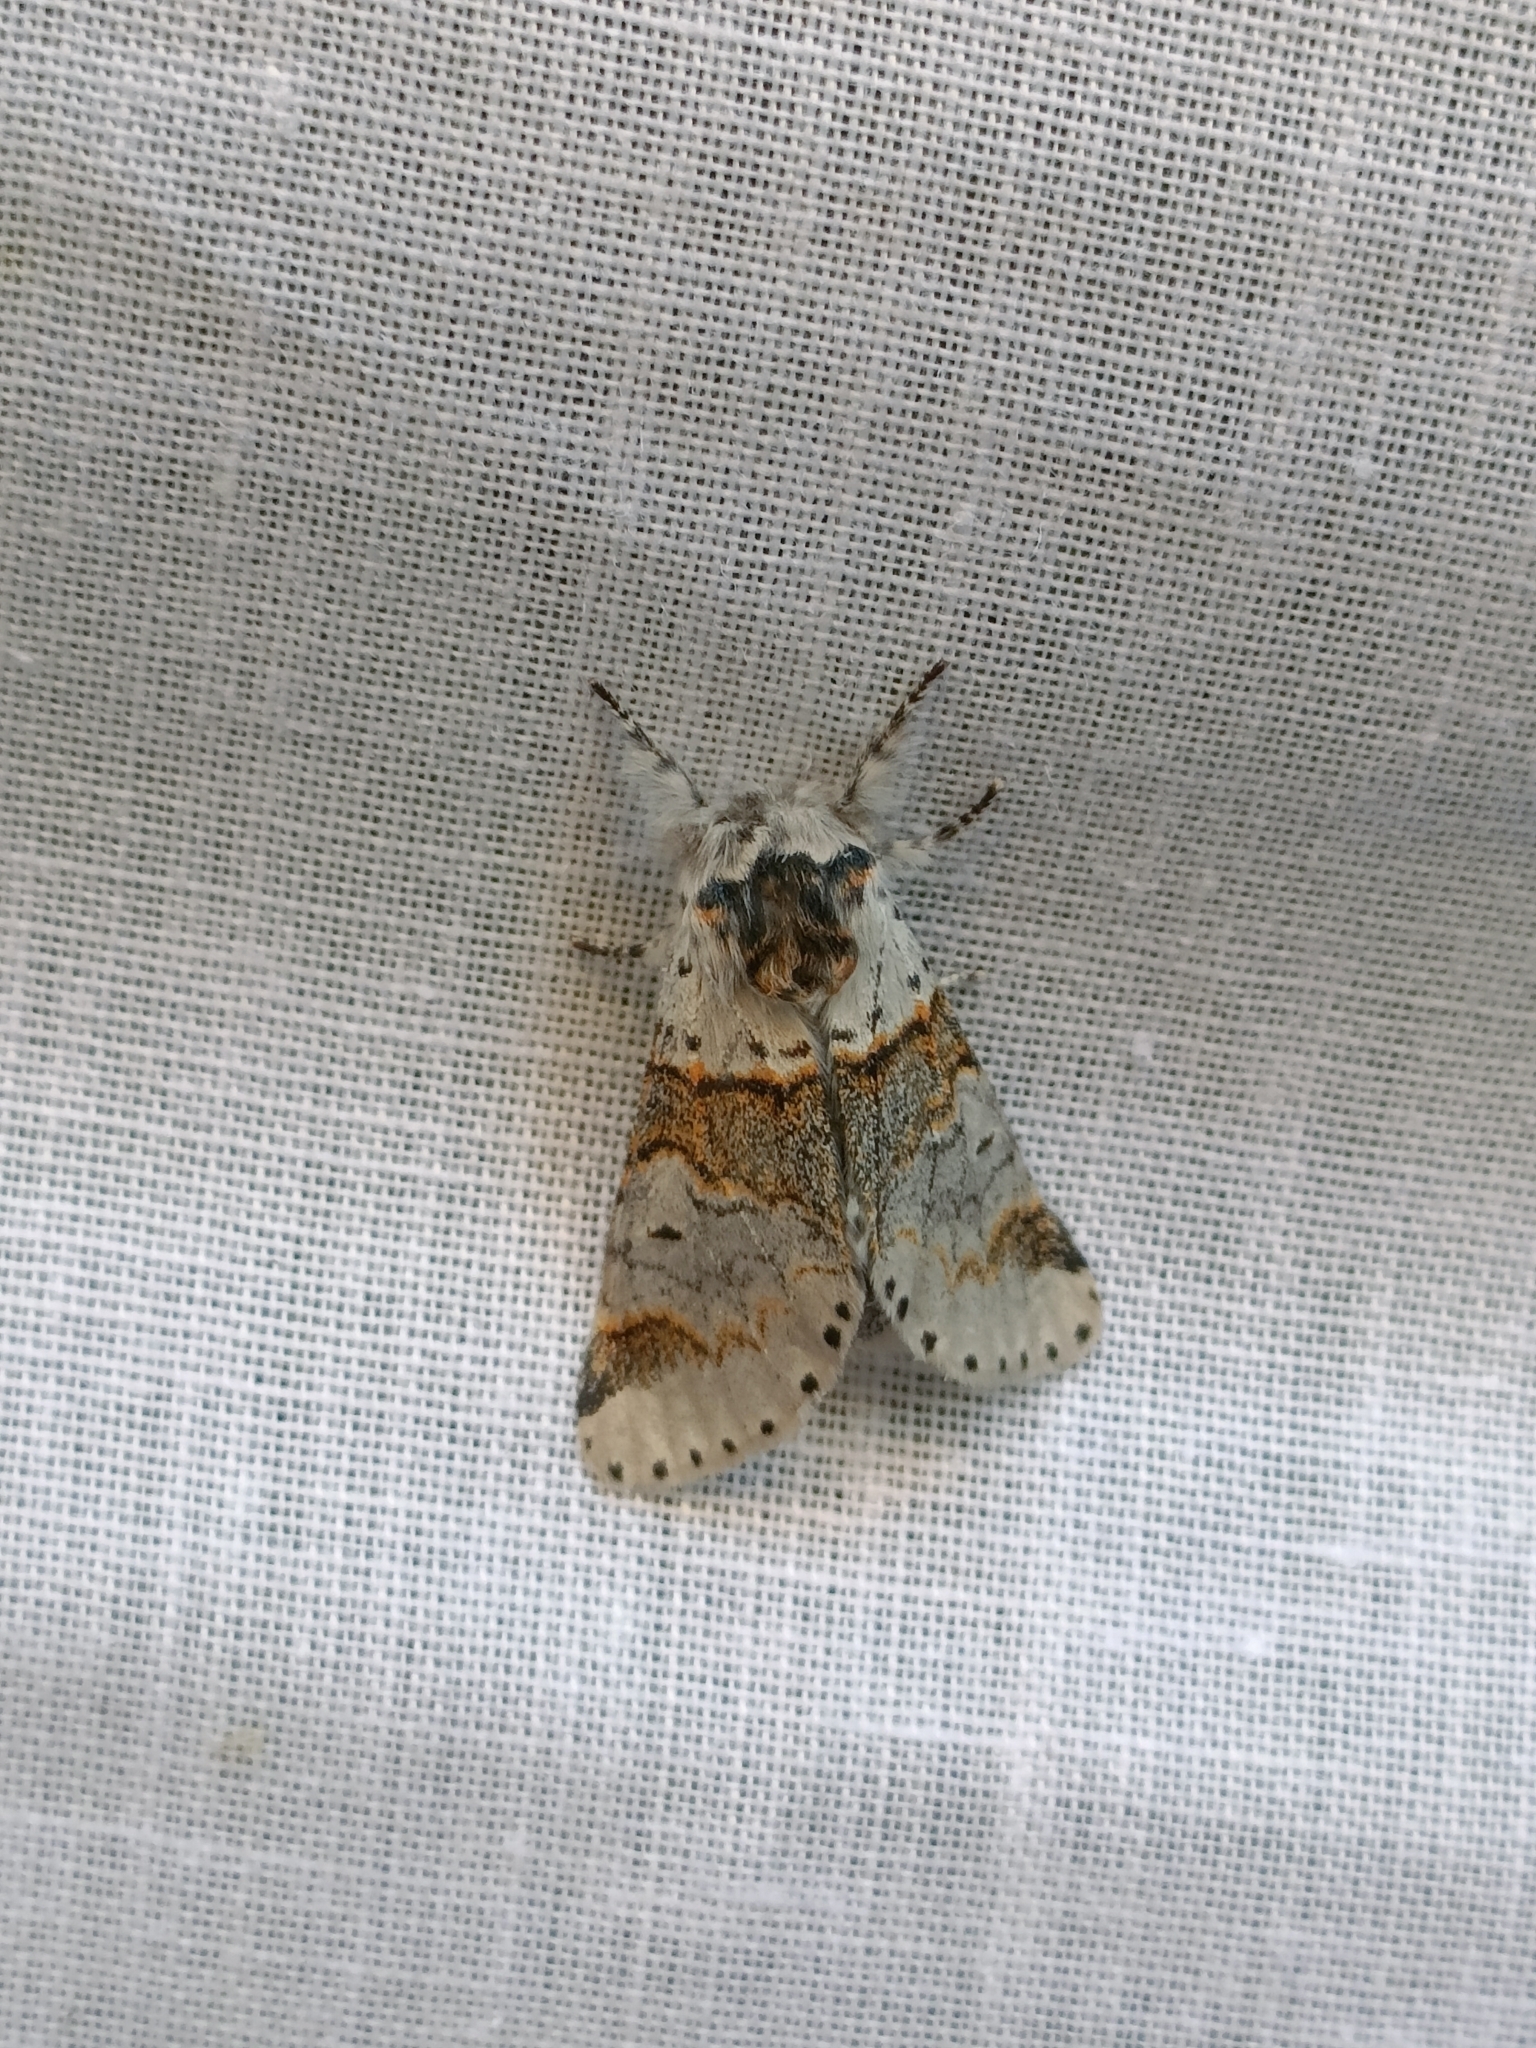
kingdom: Animalia
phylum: Arthropoda
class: Insecta
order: Lepidoptera
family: Notodontidae
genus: Furcula
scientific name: Furcula furcula
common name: Sallow kitten
